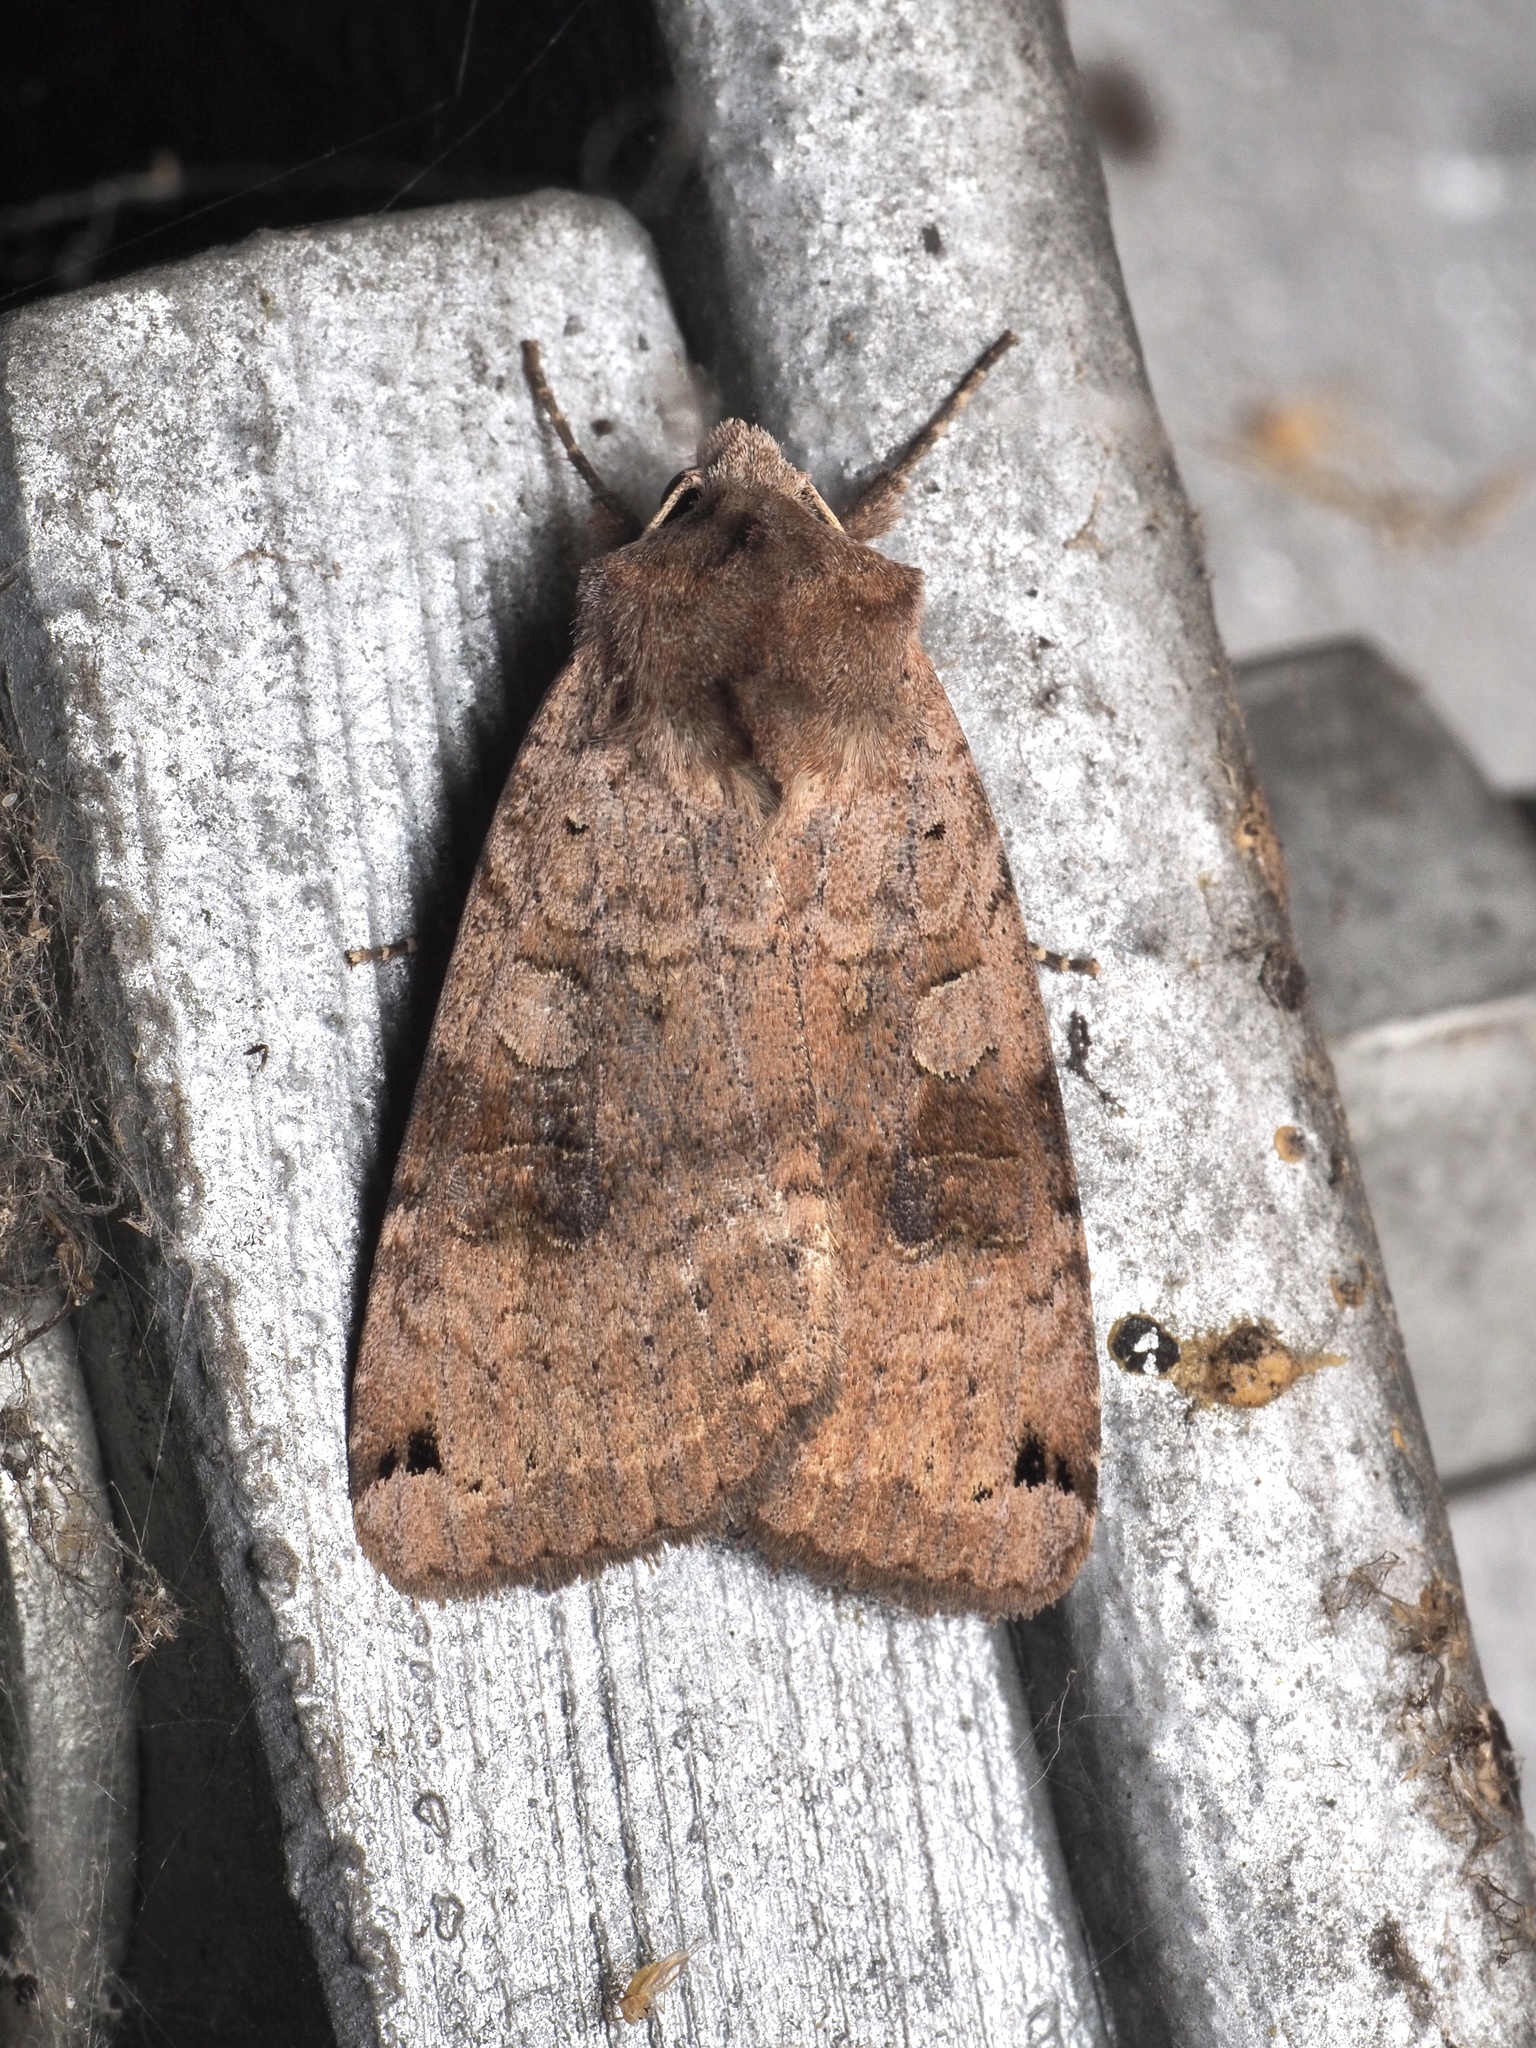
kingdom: Animalia
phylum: Arthropoda
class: Insecta
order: Lepidoptera
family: Noctuidae
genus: Xestia
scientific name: Xestia baja
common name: Dotted clay
